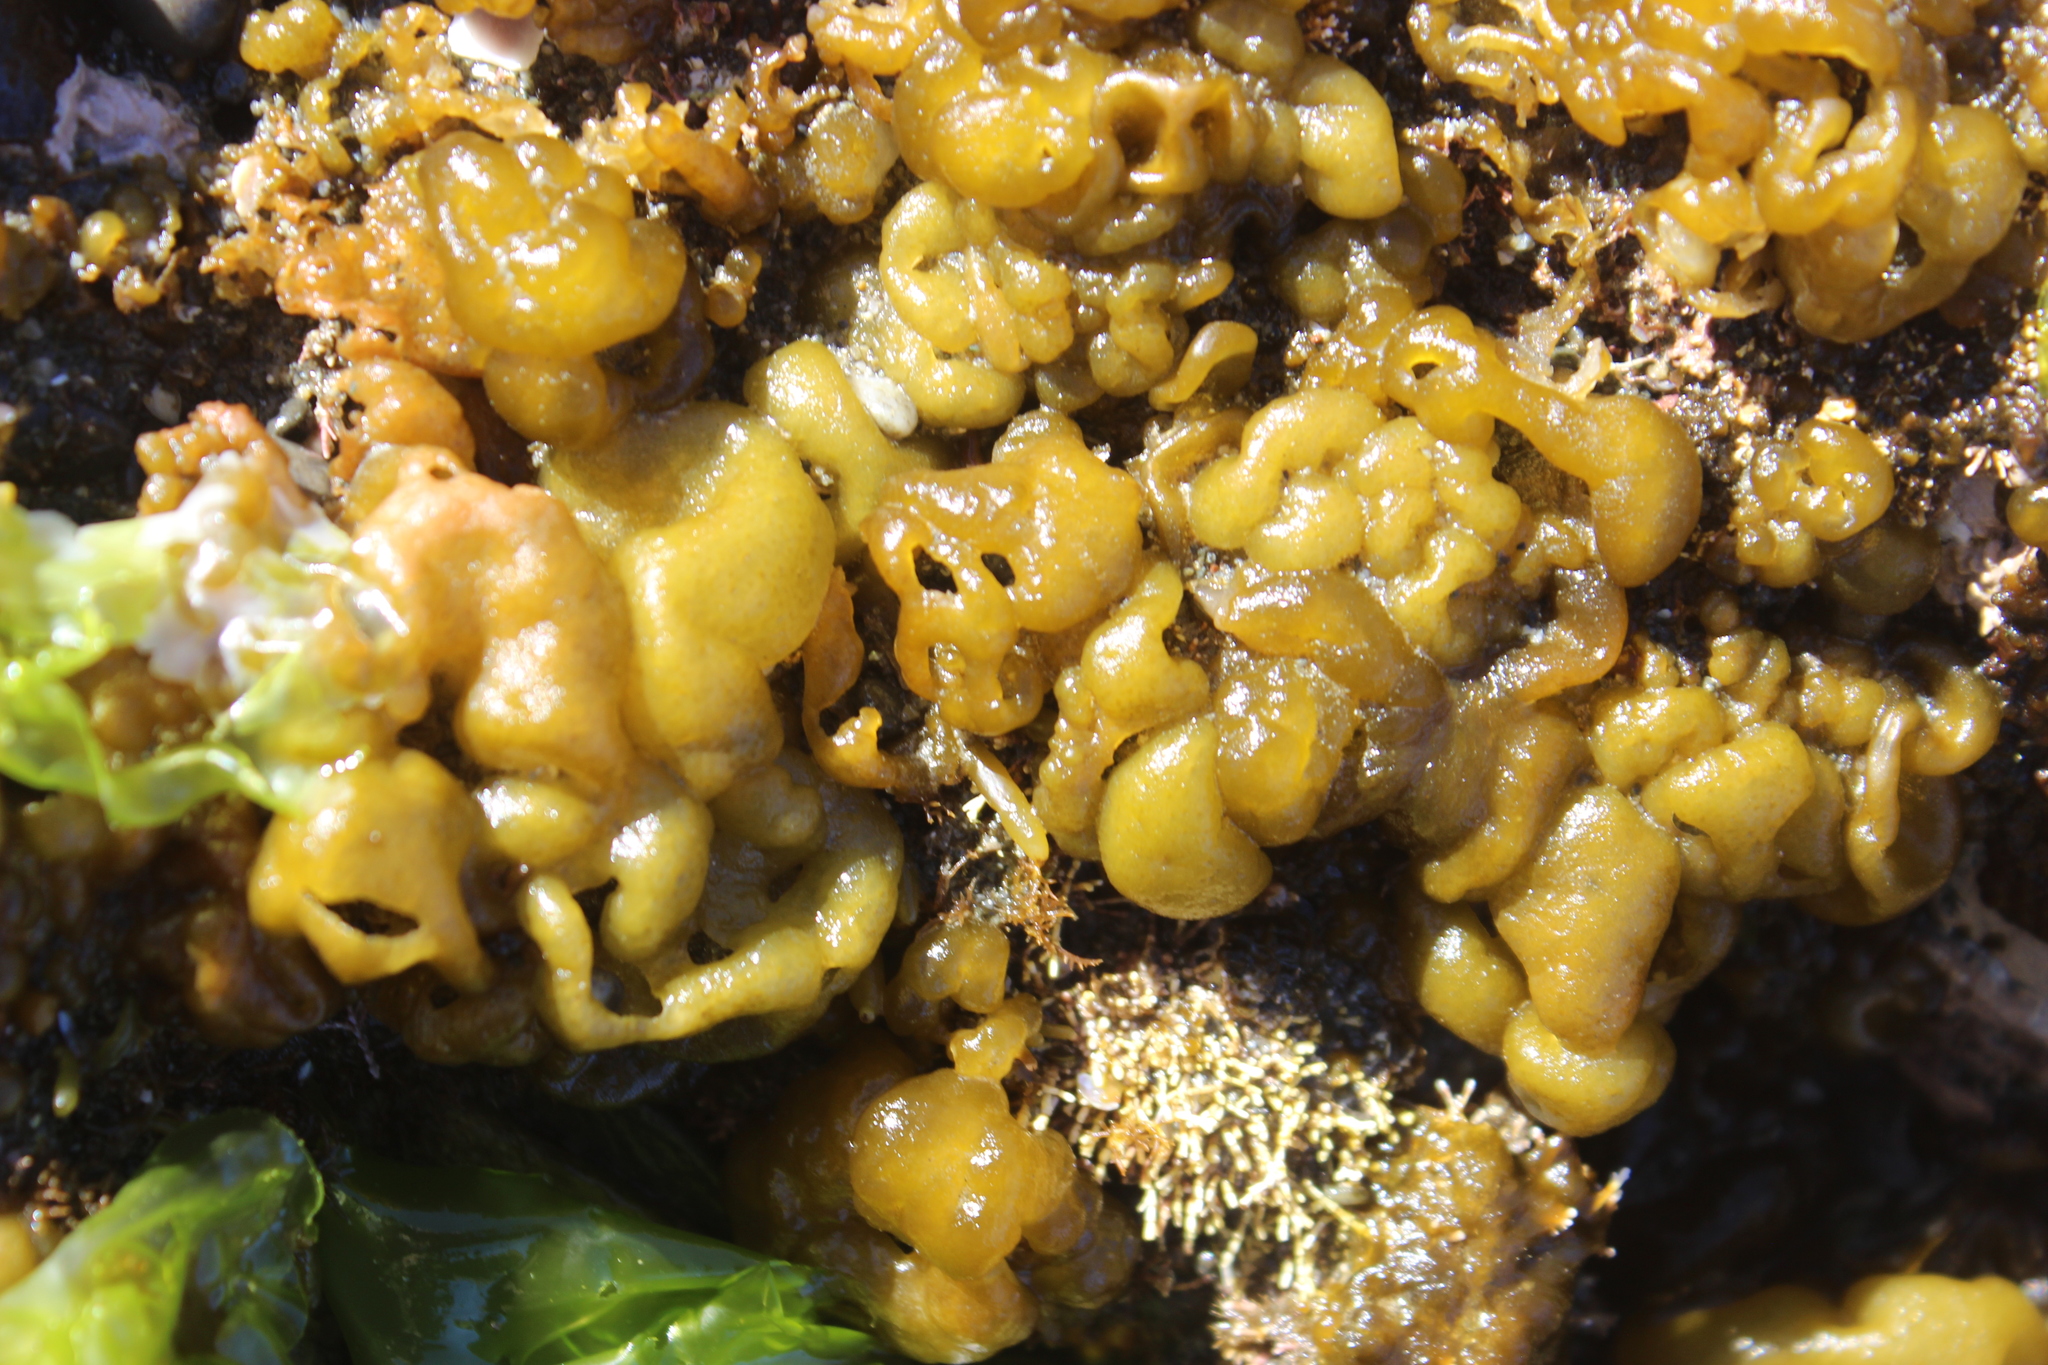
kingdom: Chromista
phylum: Ochrophyta
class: Phaeophyceae
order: Ectocarpales
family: Chordariaceae
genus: Leathesia
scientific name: Leathesia marina
